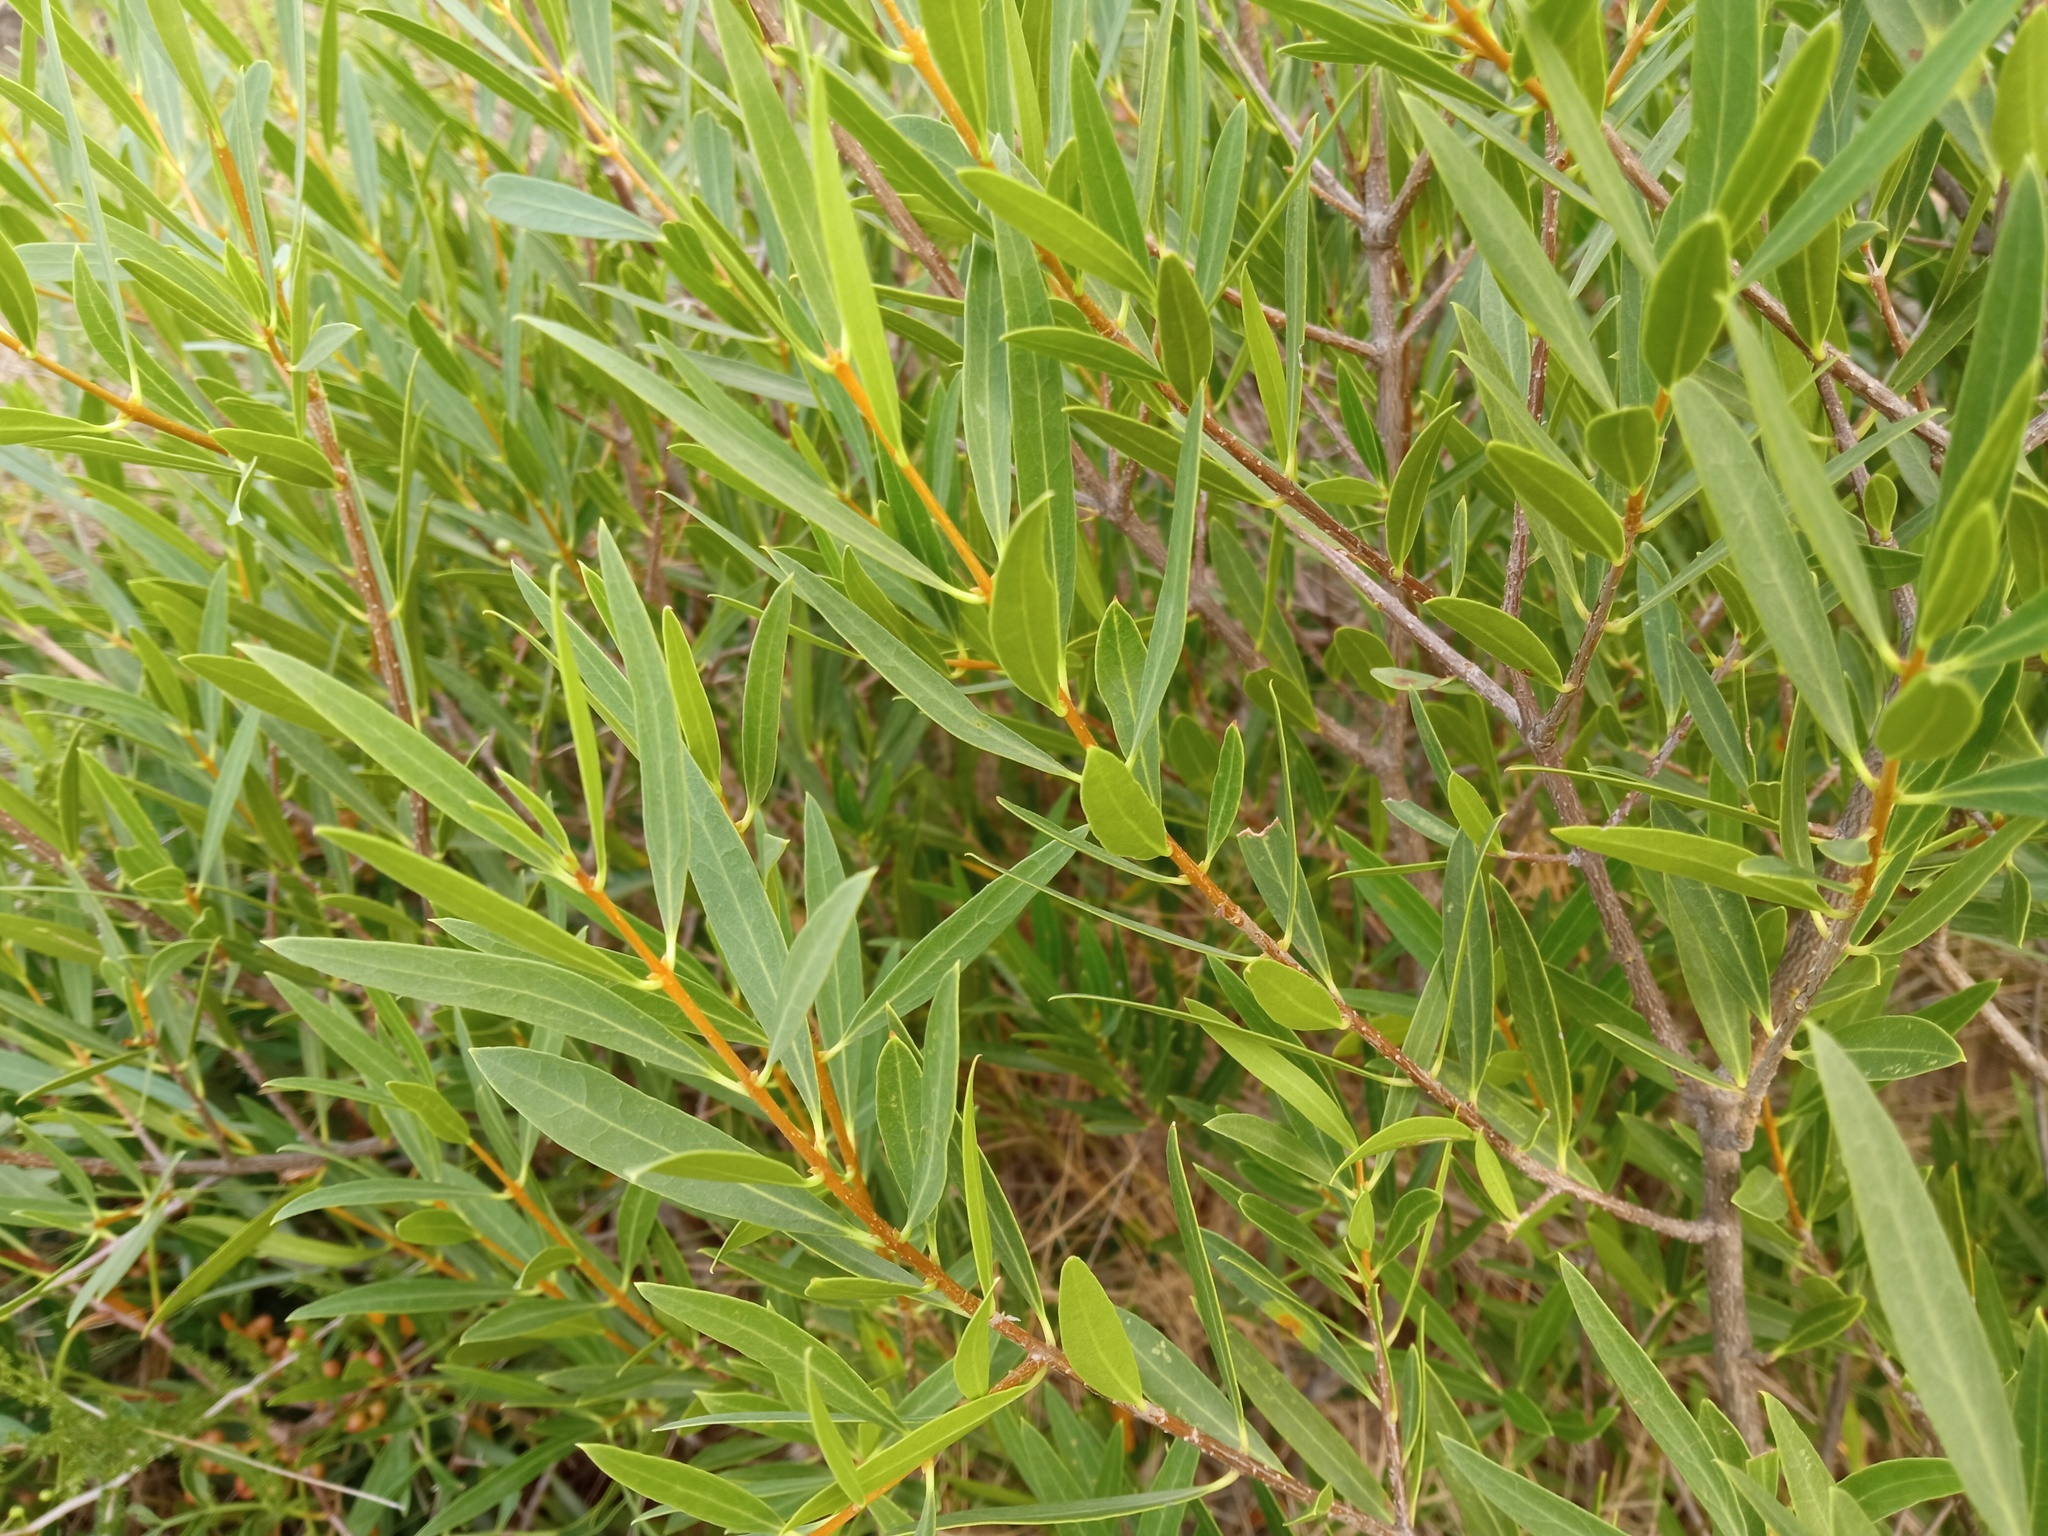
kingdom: Plantae
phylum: Tracheophyta
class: Magnoliopsida
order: Lamiales
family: Oleaceae
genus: Phillyrea
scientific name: Phillyrea angustifolia
